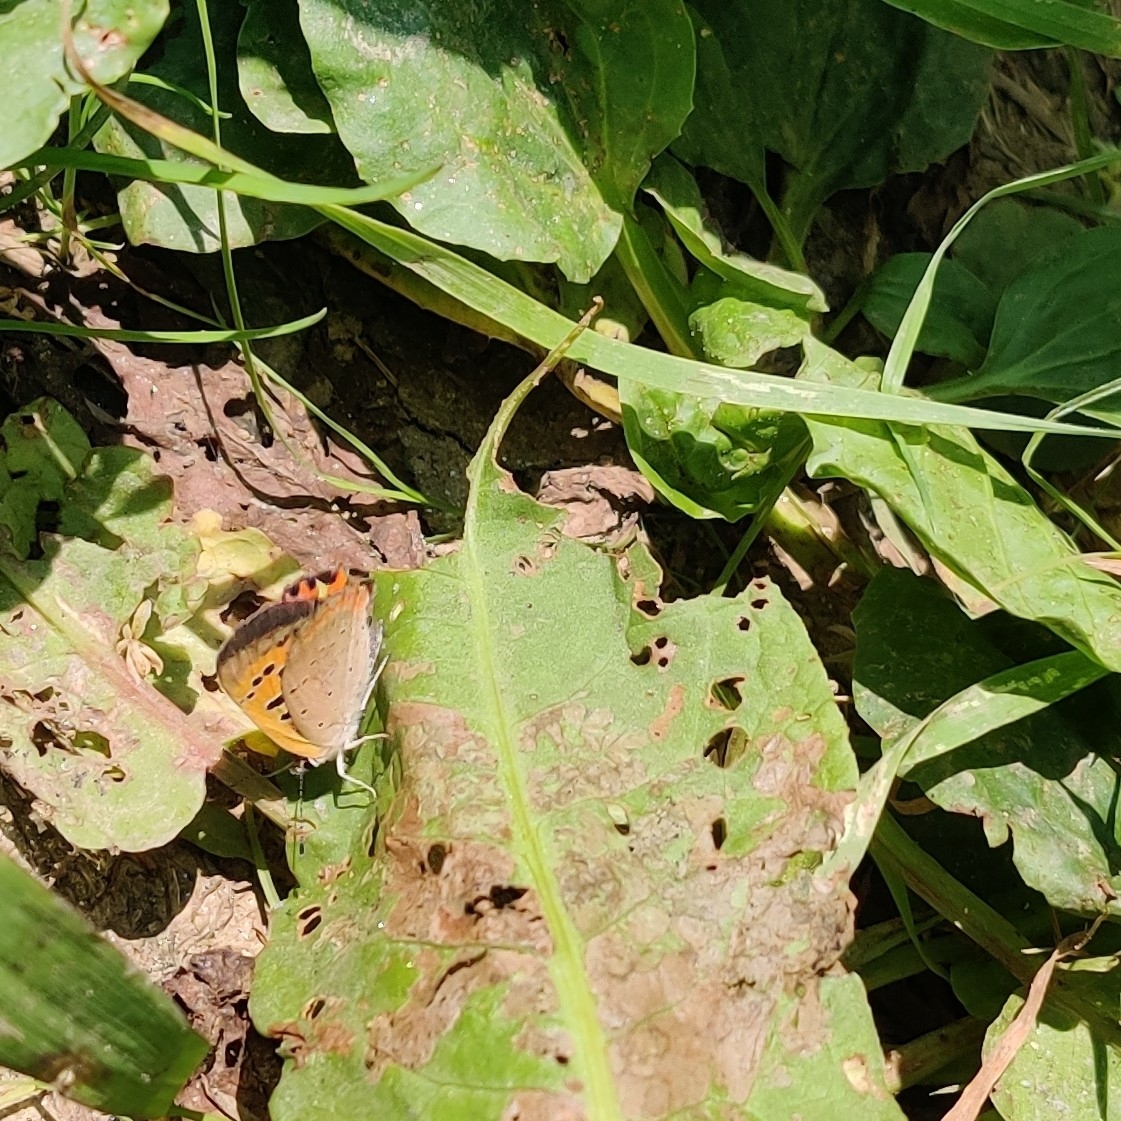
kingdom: Animalia
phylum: Arthropoda
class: Insecta
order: Lepidoptera
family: Lycaenidae
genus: Lycaena
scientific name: Lycaena phlaeas
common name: Small copper
